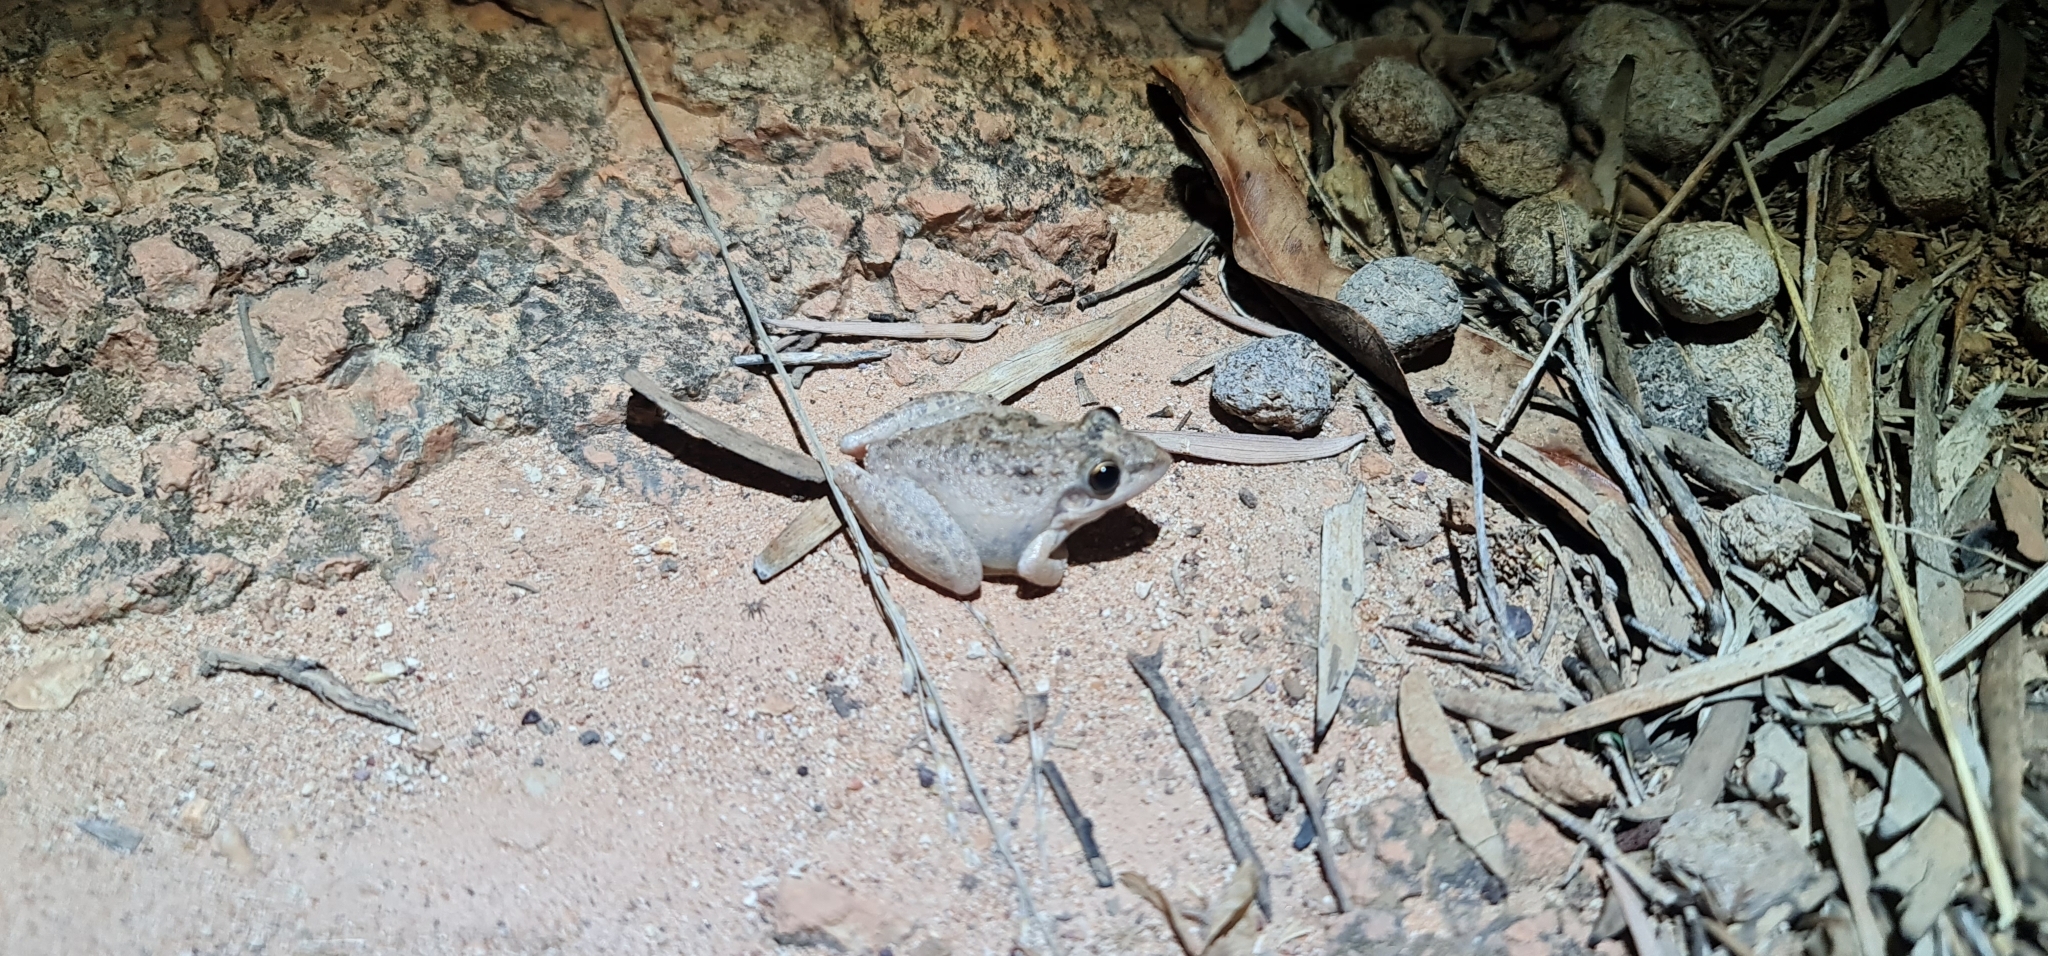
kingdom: Animalia
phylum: Chordata
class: Amphibia
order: Anura
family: Pelodryadidae
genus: Litoria
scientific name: Litoria inermis
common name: Bumpy rocket frog
